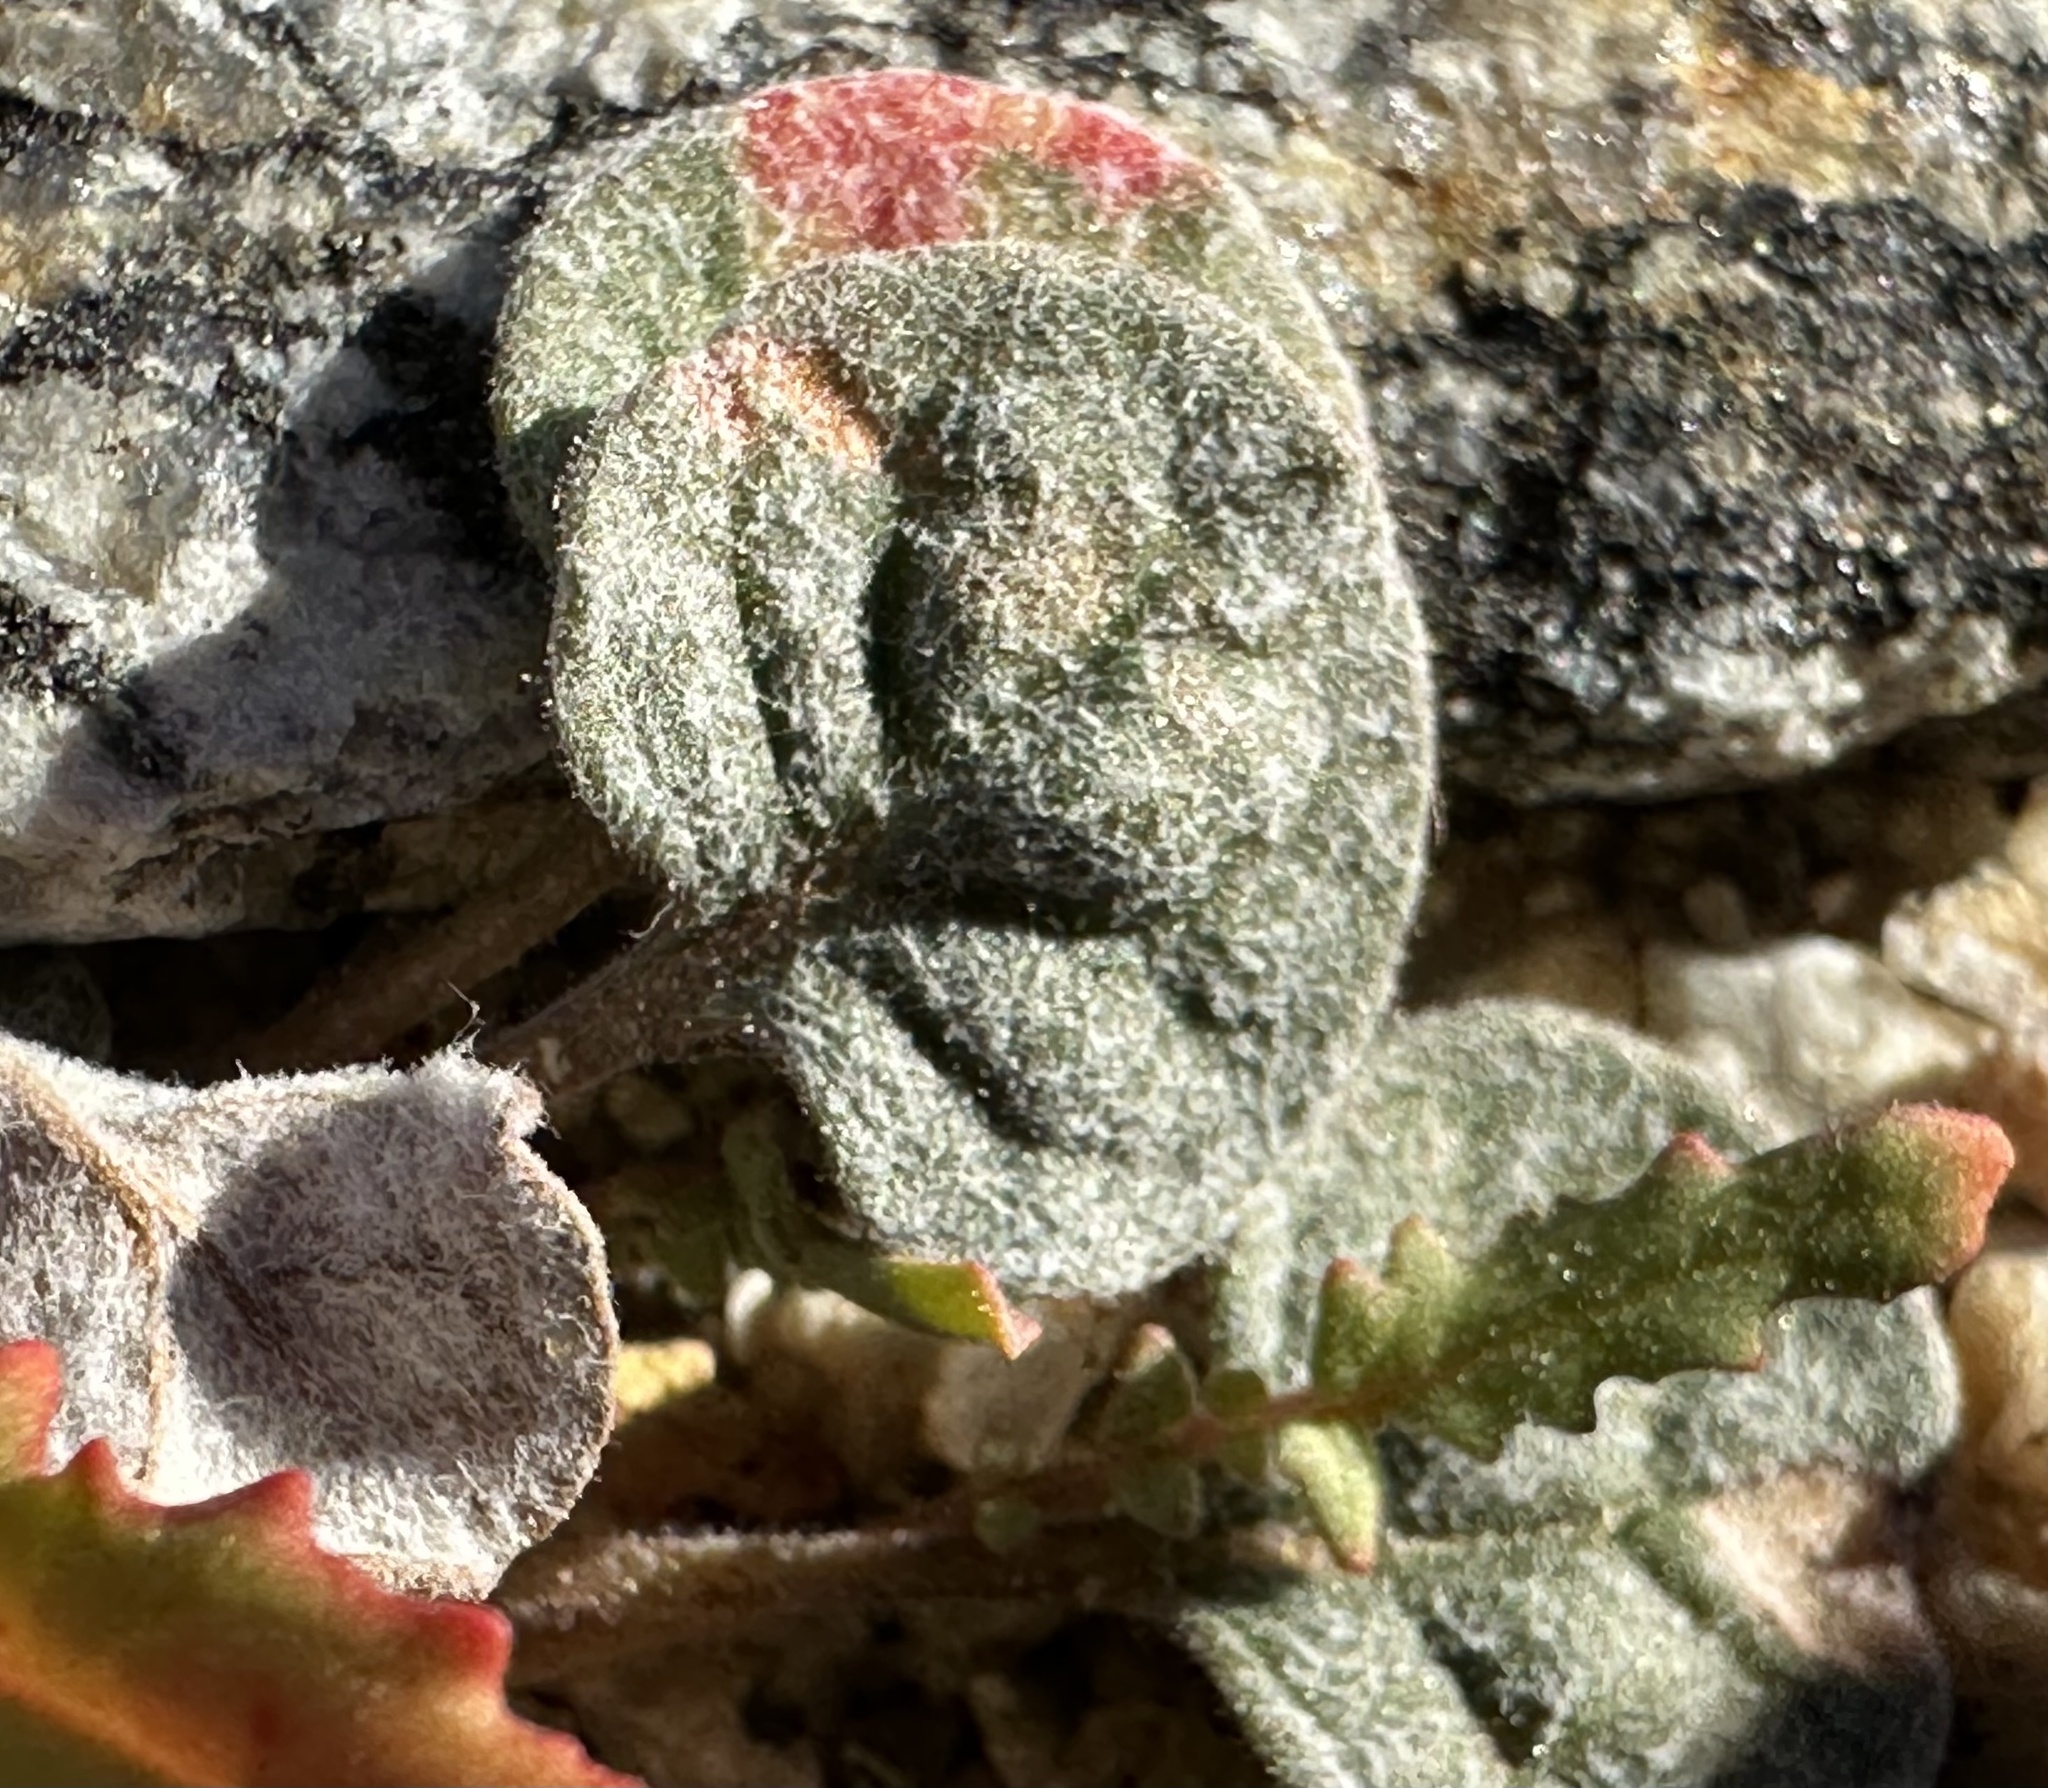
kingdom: Plantae
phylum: Tracheophyta
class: Magnoliopsida
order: Caryophyllales
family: Polygonaceae
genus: Eriogonum
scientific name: Eriogonum thomasii
